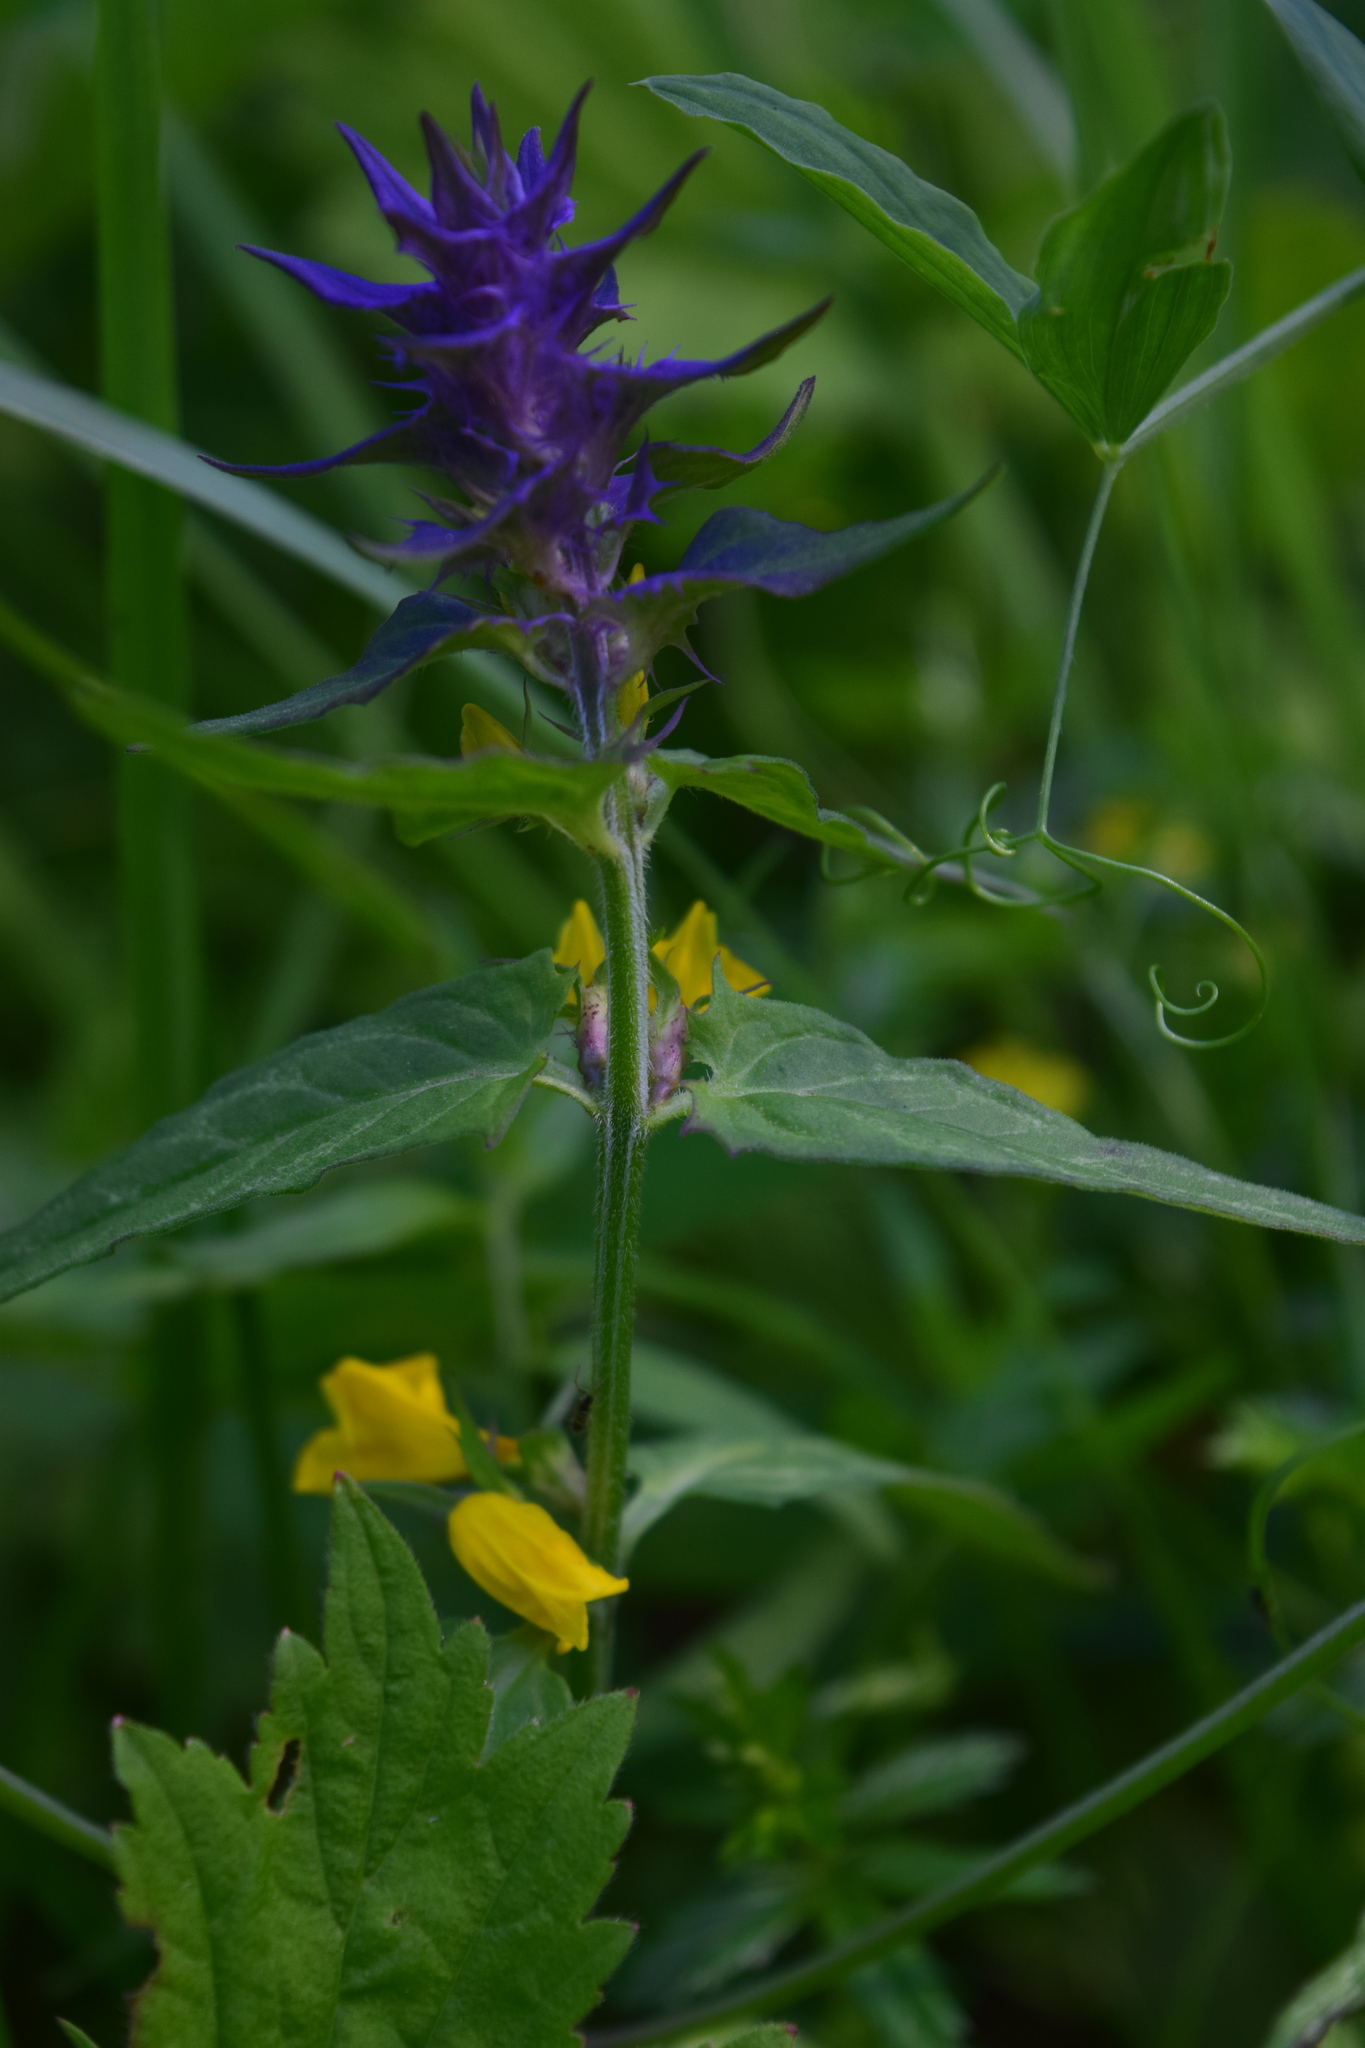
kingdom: Plantae
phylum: Tracheophyta
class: Magnoliopsida
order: Lamiales
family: Orobanchaceae
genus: Melampyrum
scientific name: Melampyrum nemorosum
